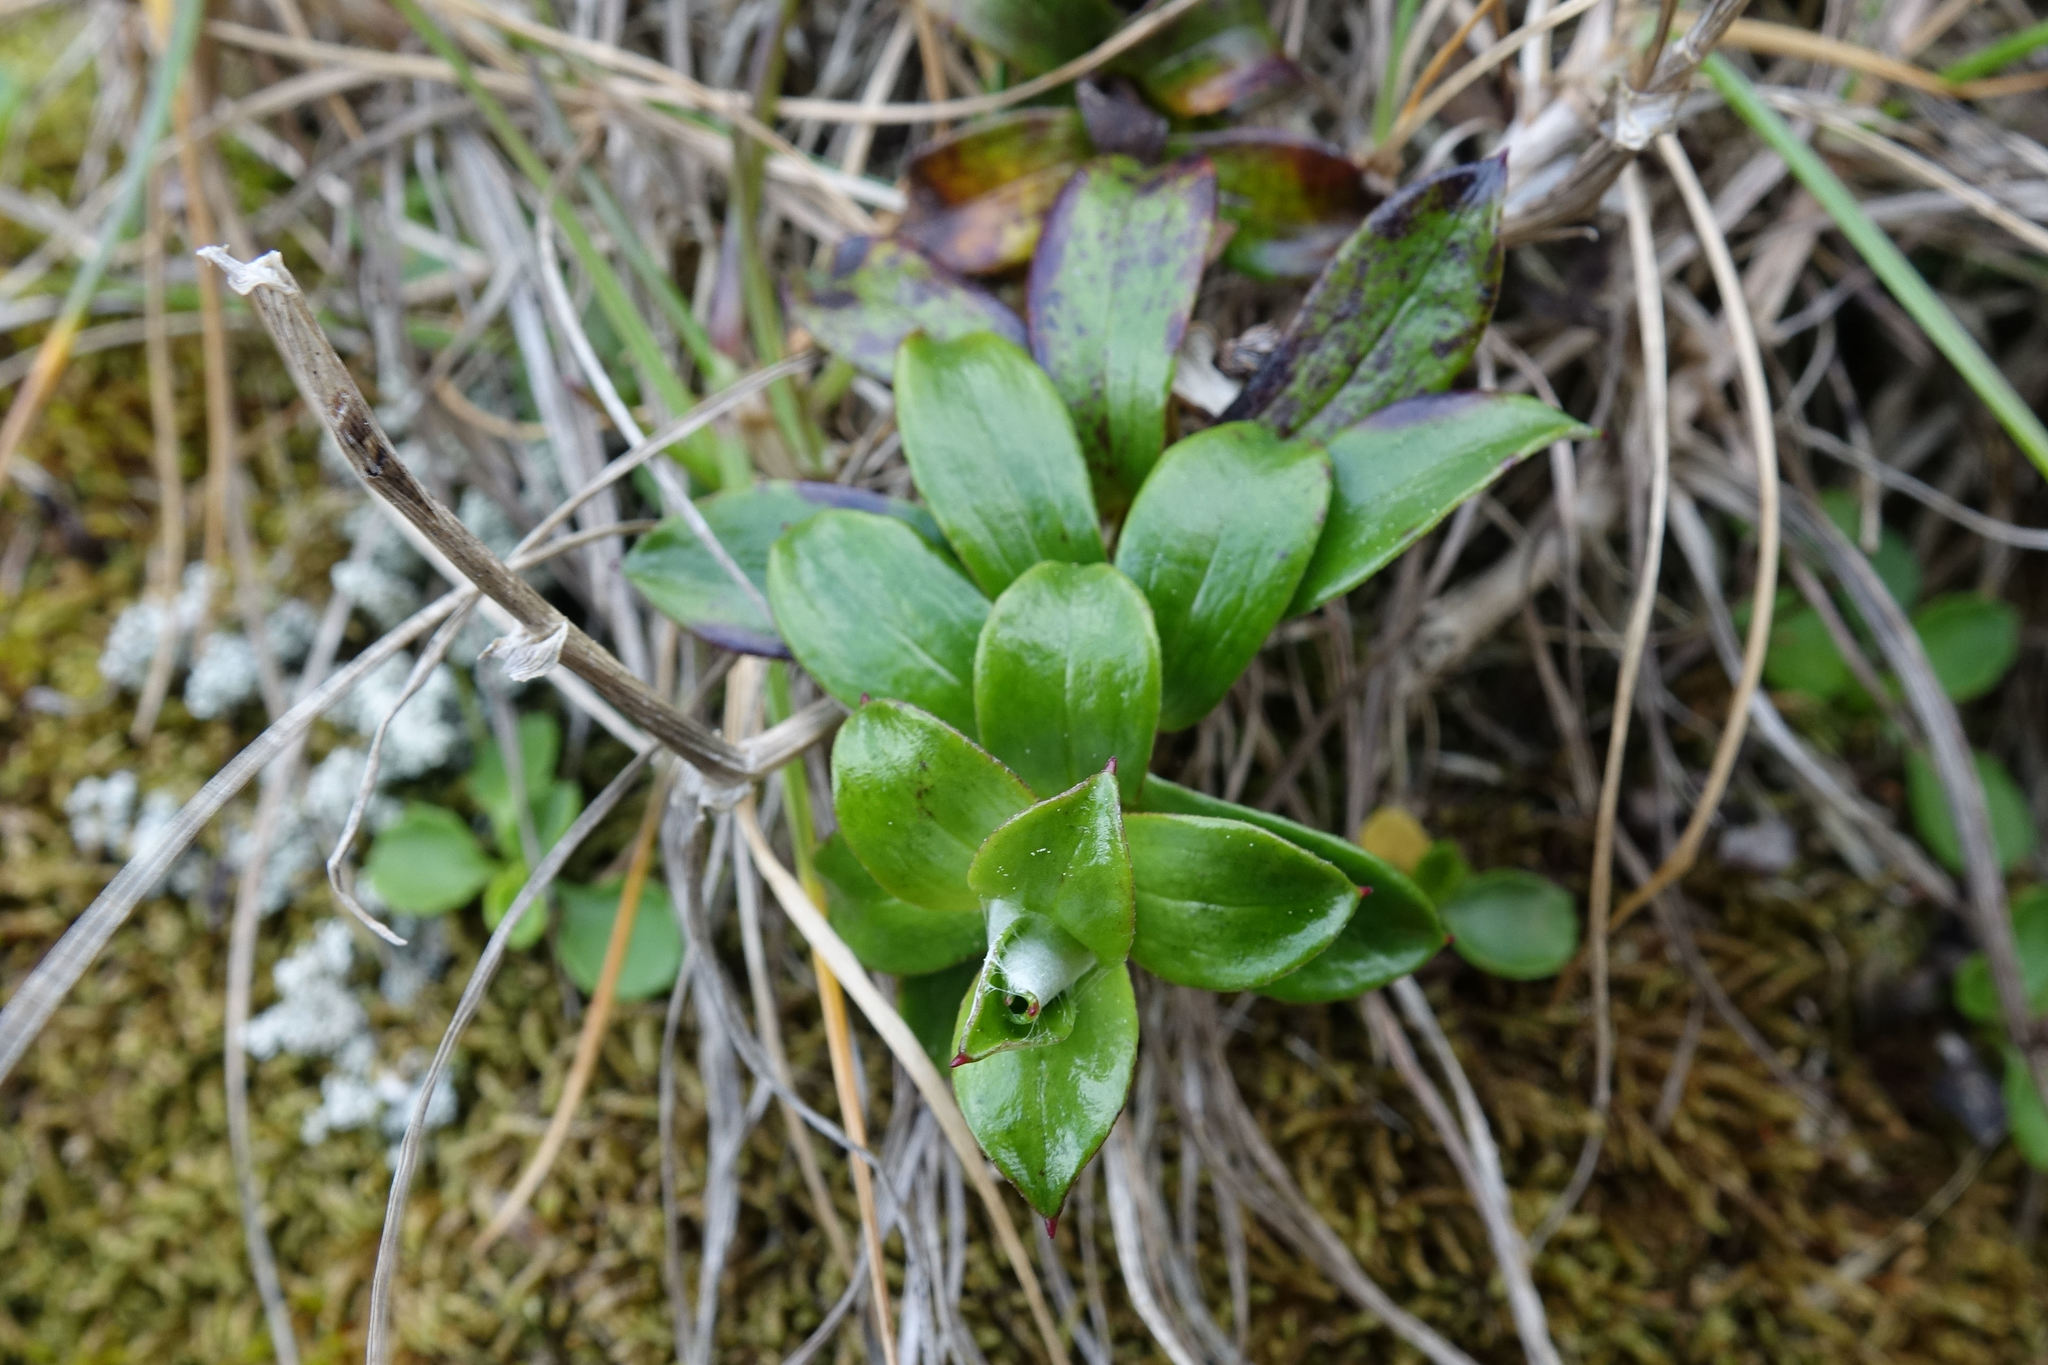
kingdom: Plantae
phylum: Tracheophyta
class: Magnoliopsida
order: Asterales
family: Asteraceae
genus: Anaphalioides
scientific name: Anaphalioides hookeri
